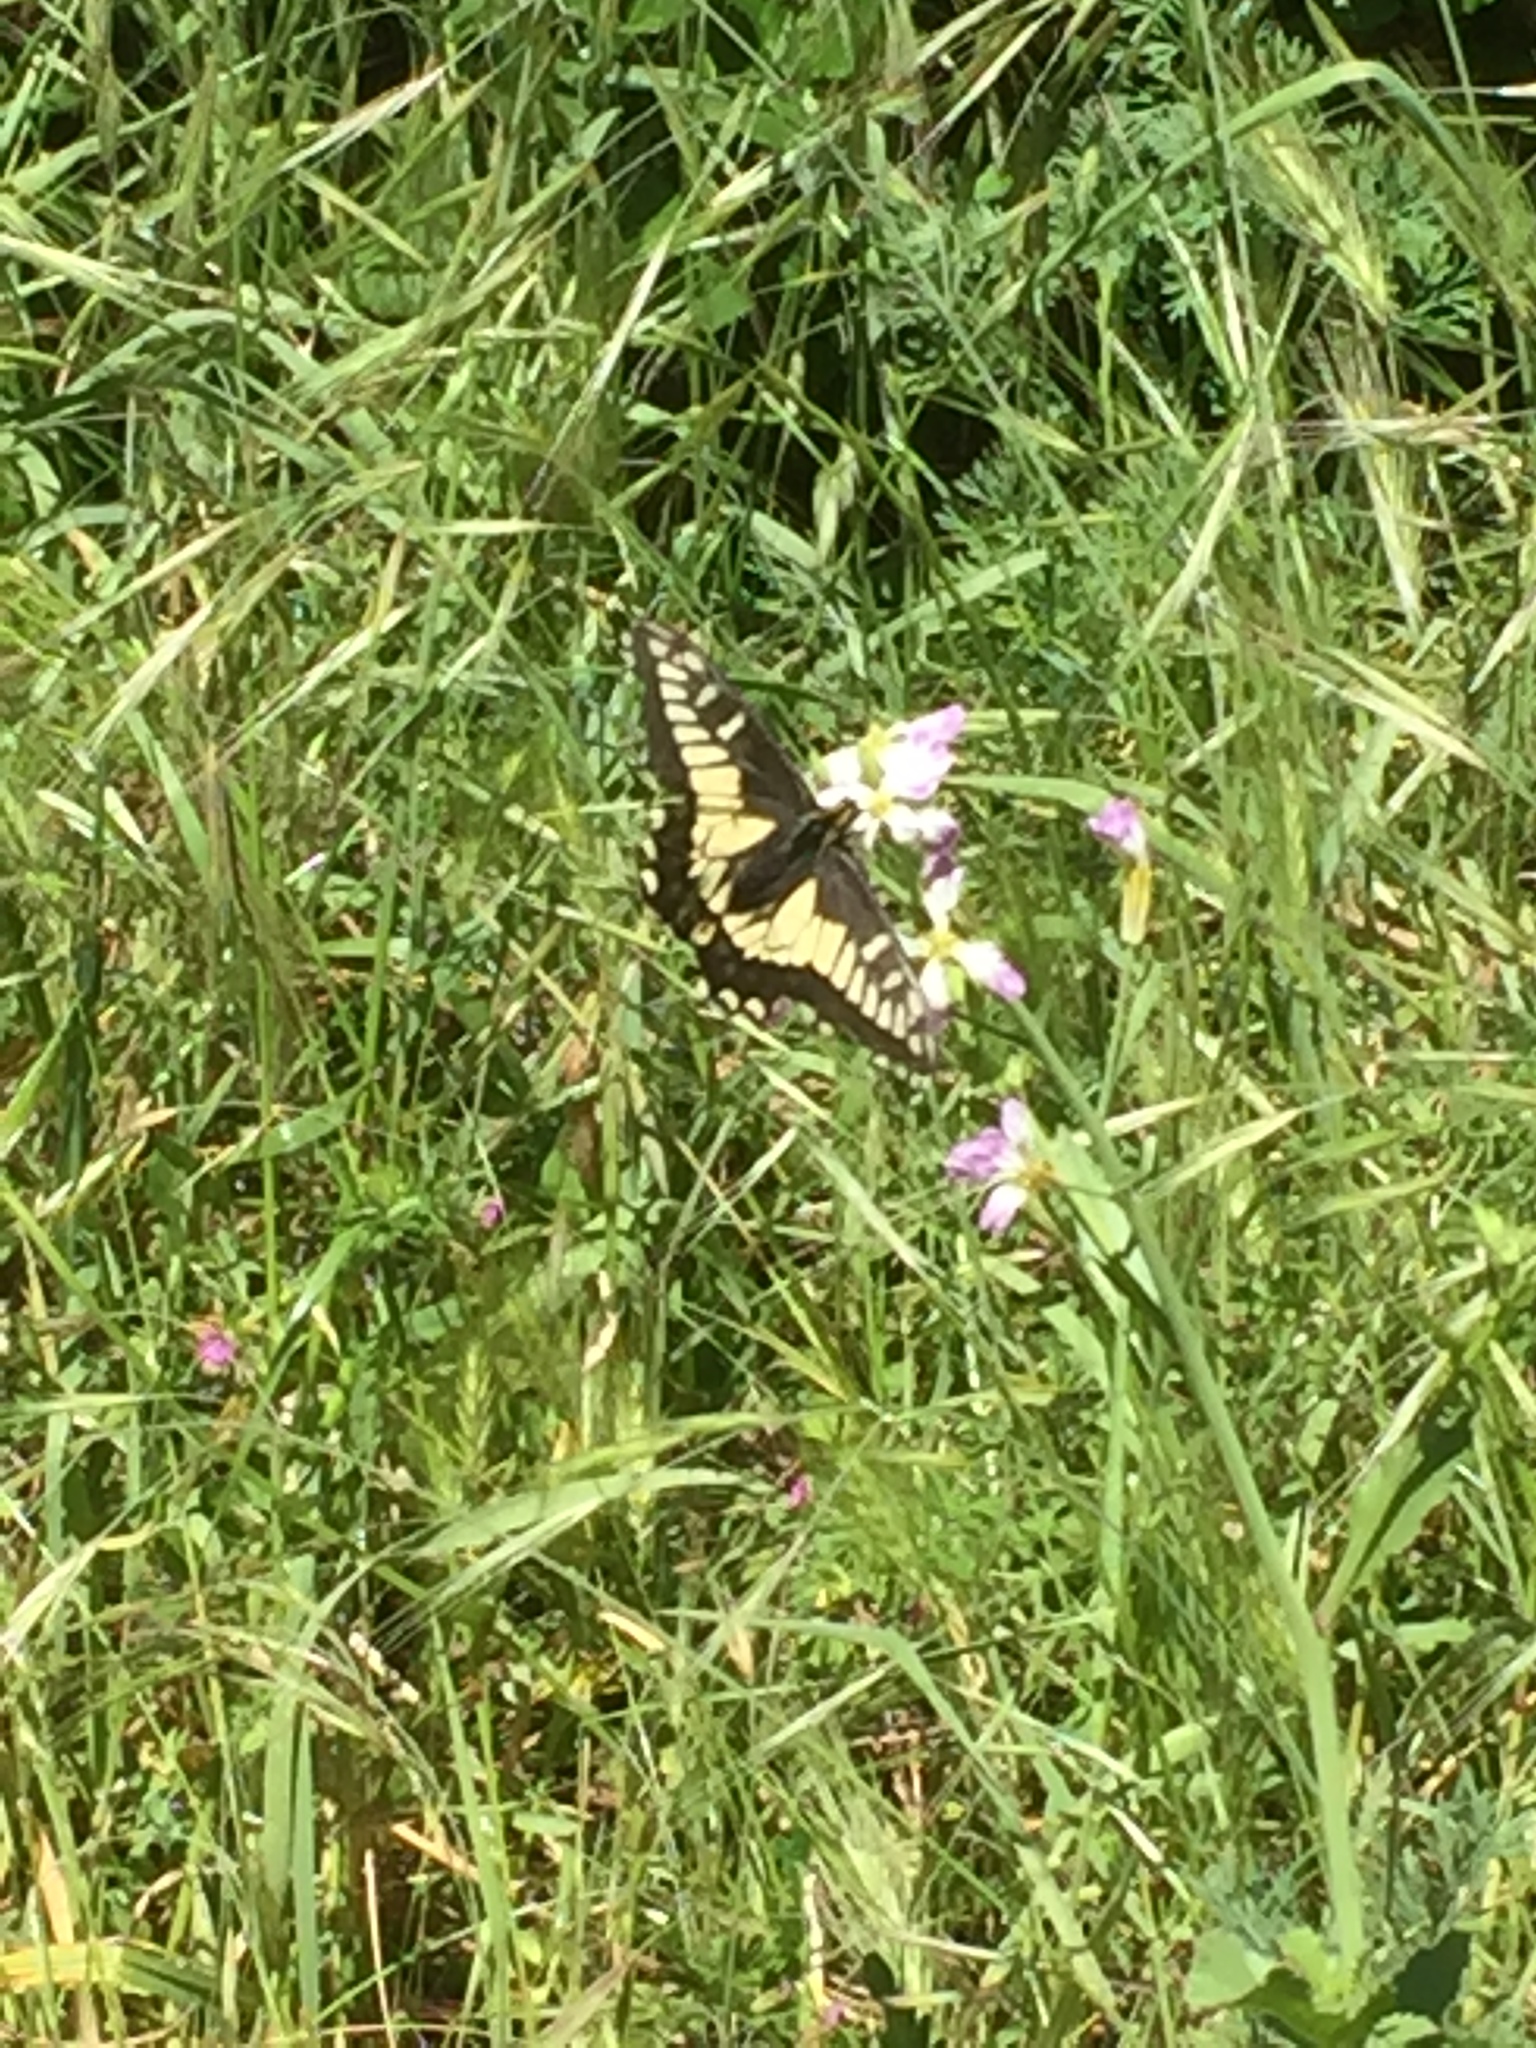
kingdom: Animalia
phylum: Arthropoda
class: Insecta
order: Lepidoptera
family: Papilionidae
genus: Papilio
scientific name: Papilio zelicaon
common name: Anise swallowtail
